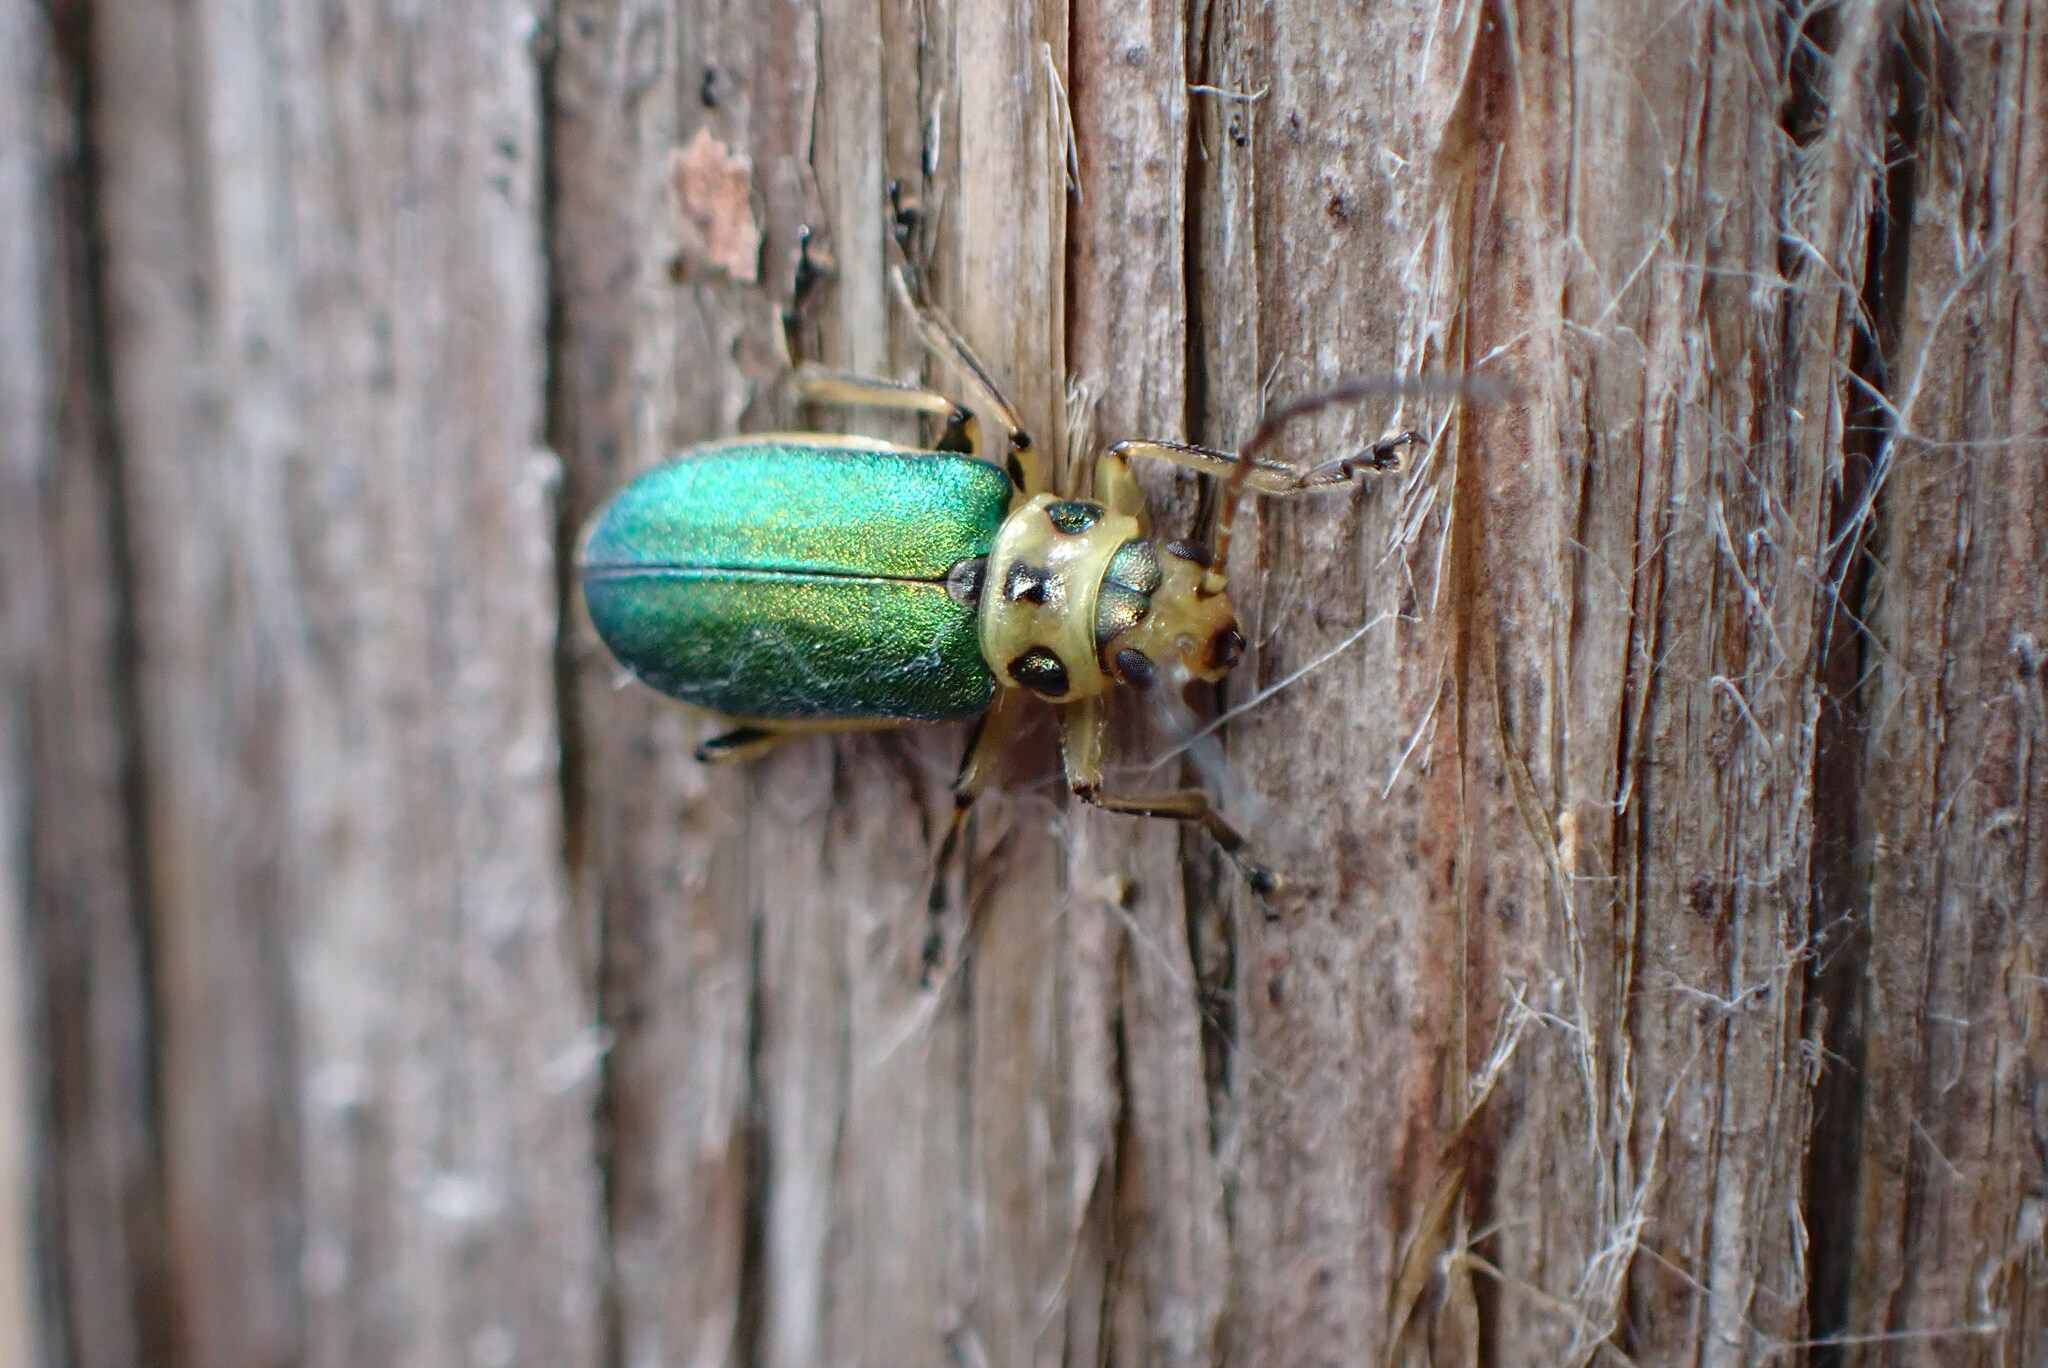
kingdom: Animalia
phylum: Arthropoda
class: Insecta
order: Coleoptera
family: Chrysomelidae
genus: Trirhabda
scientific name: Trirhabda flavolimbata
